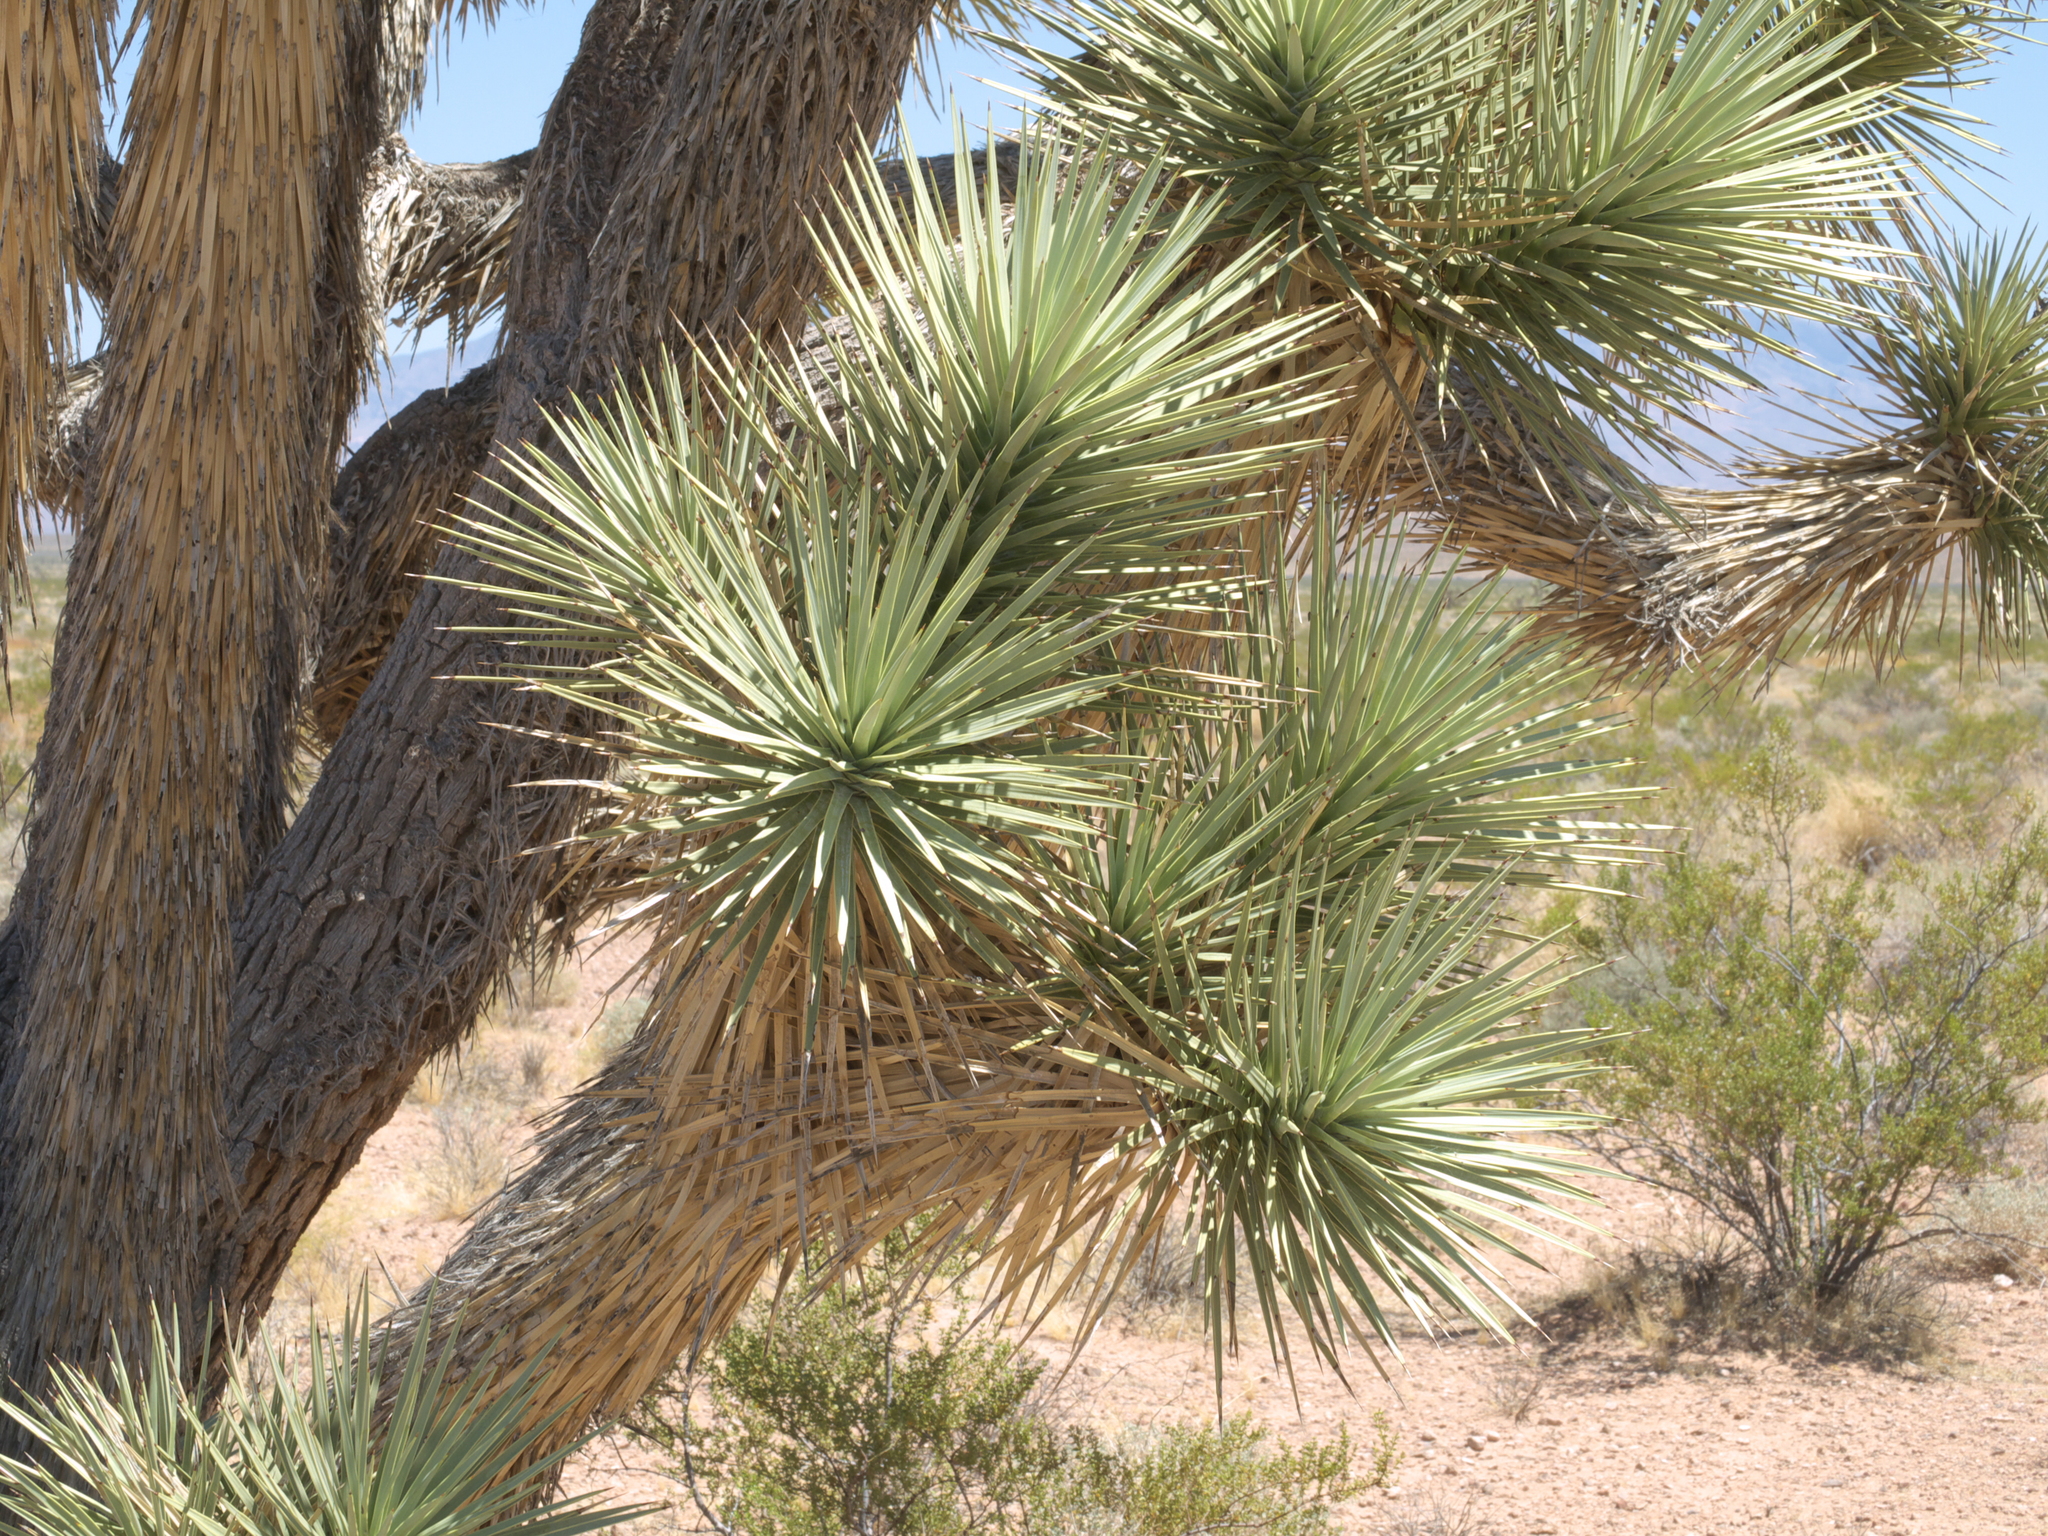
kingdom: Plantae
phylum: Tracheophyta
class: Liliopsida
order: Asparagales
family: Asparagaceae
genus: Yucca
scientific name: Yucca brevifolia
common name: Joshua tree
